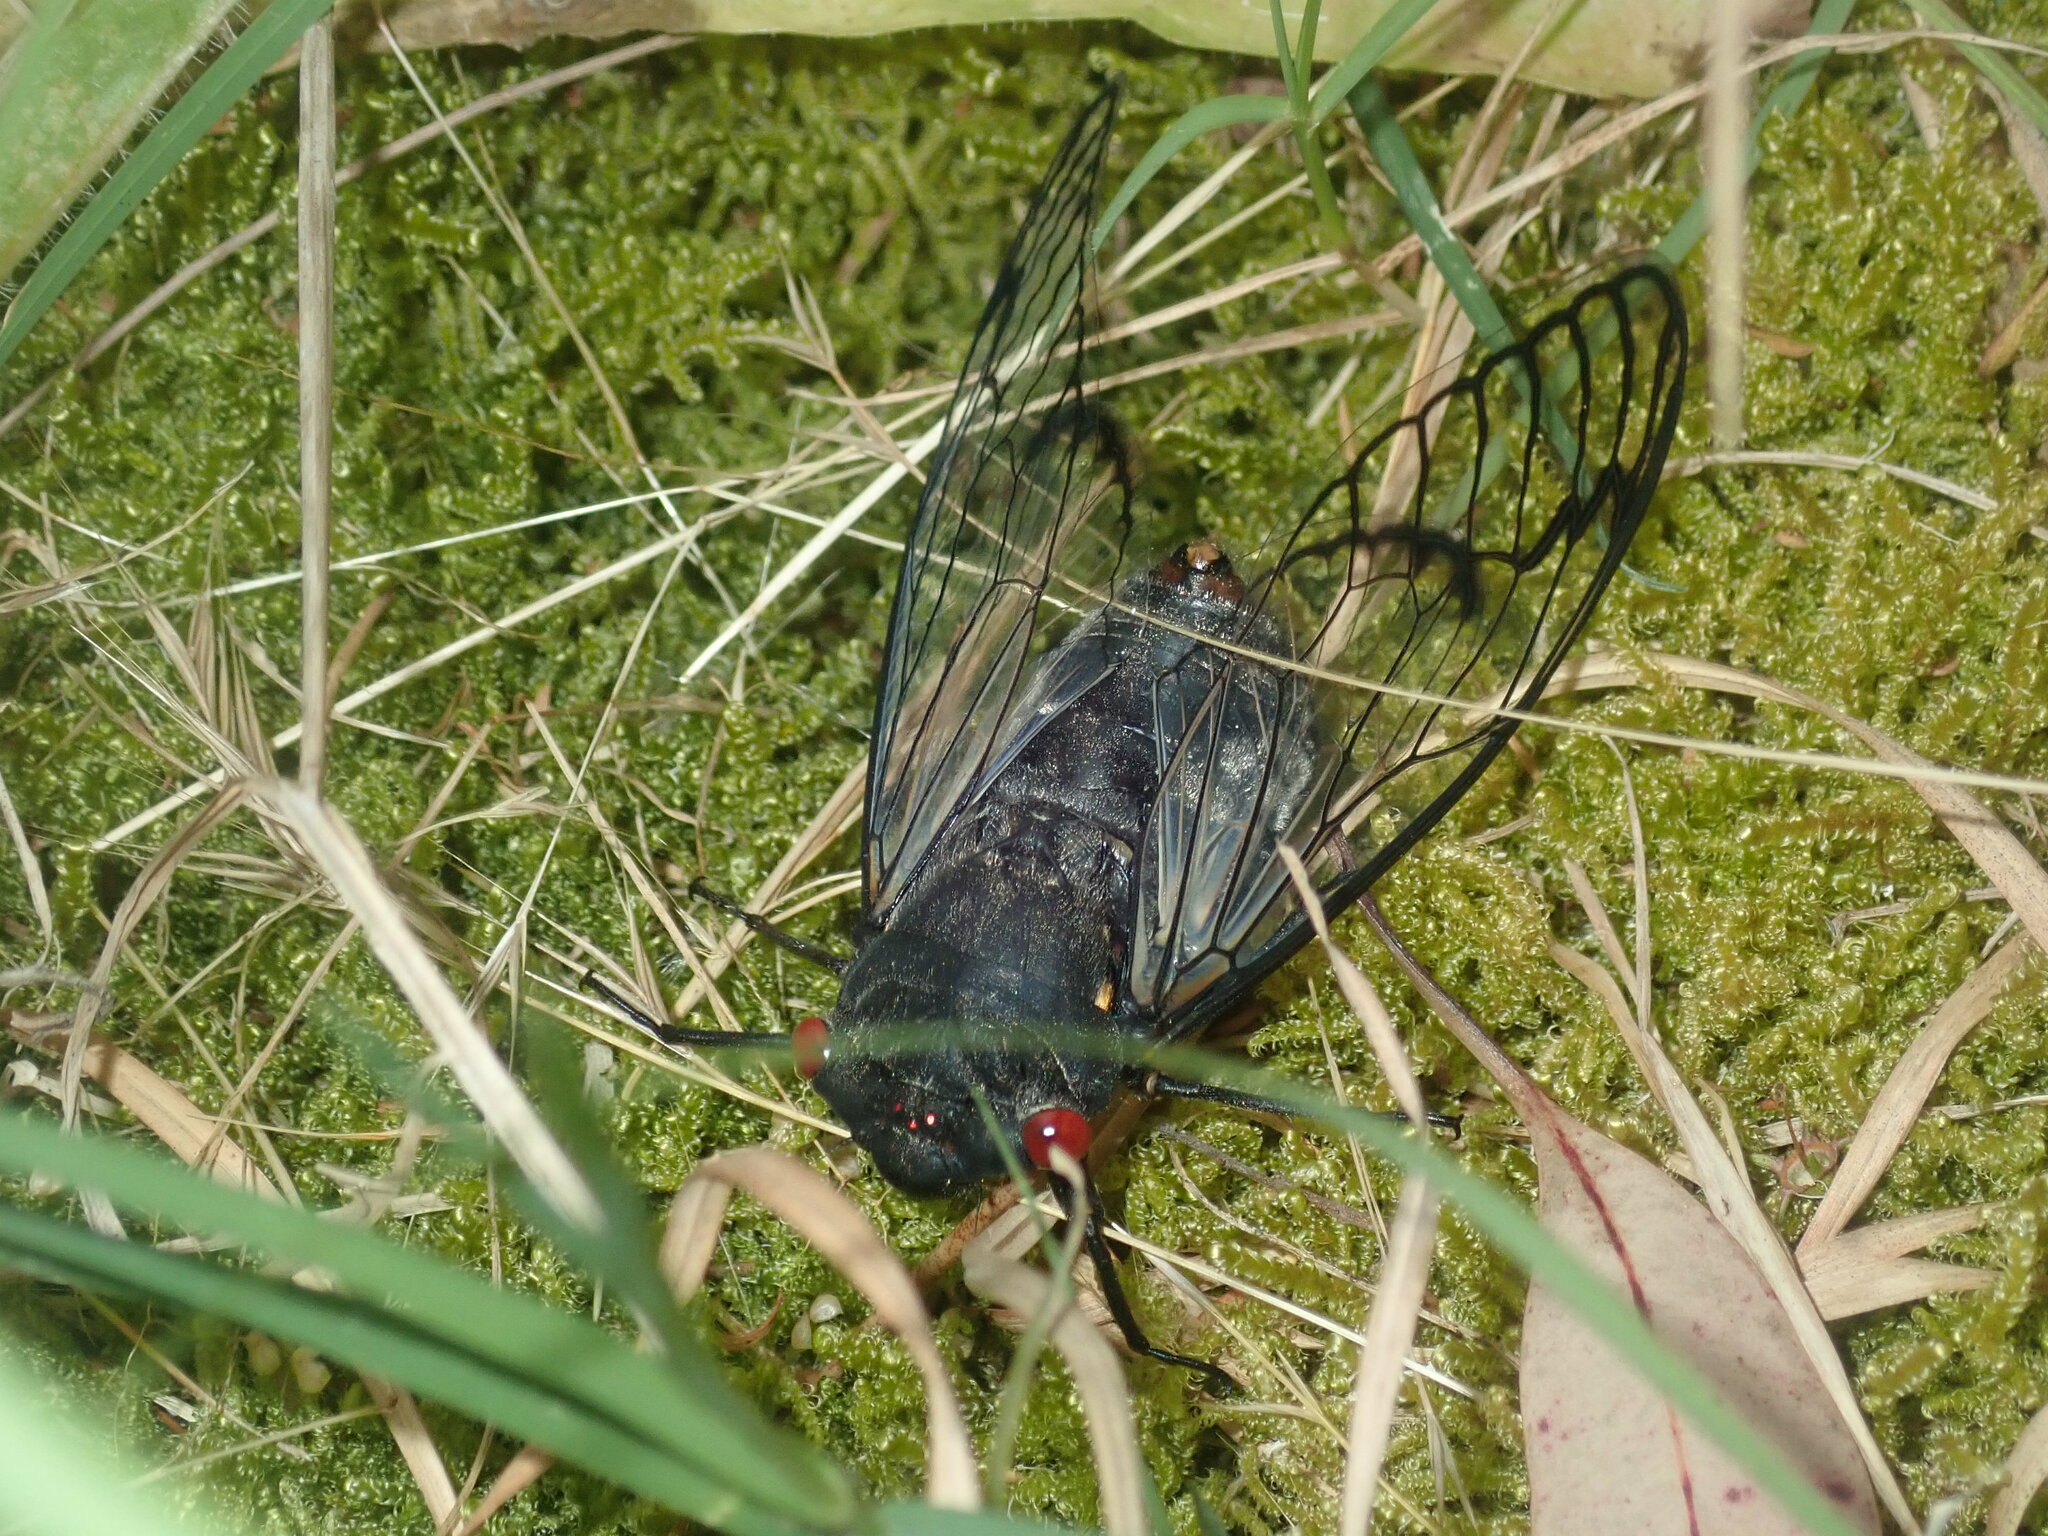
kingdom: Animalia
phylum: Arthropoda
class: Insecta
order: Hemiptera
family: Cicadidae
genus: Psaltoda
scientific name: Psaltoda moerens
